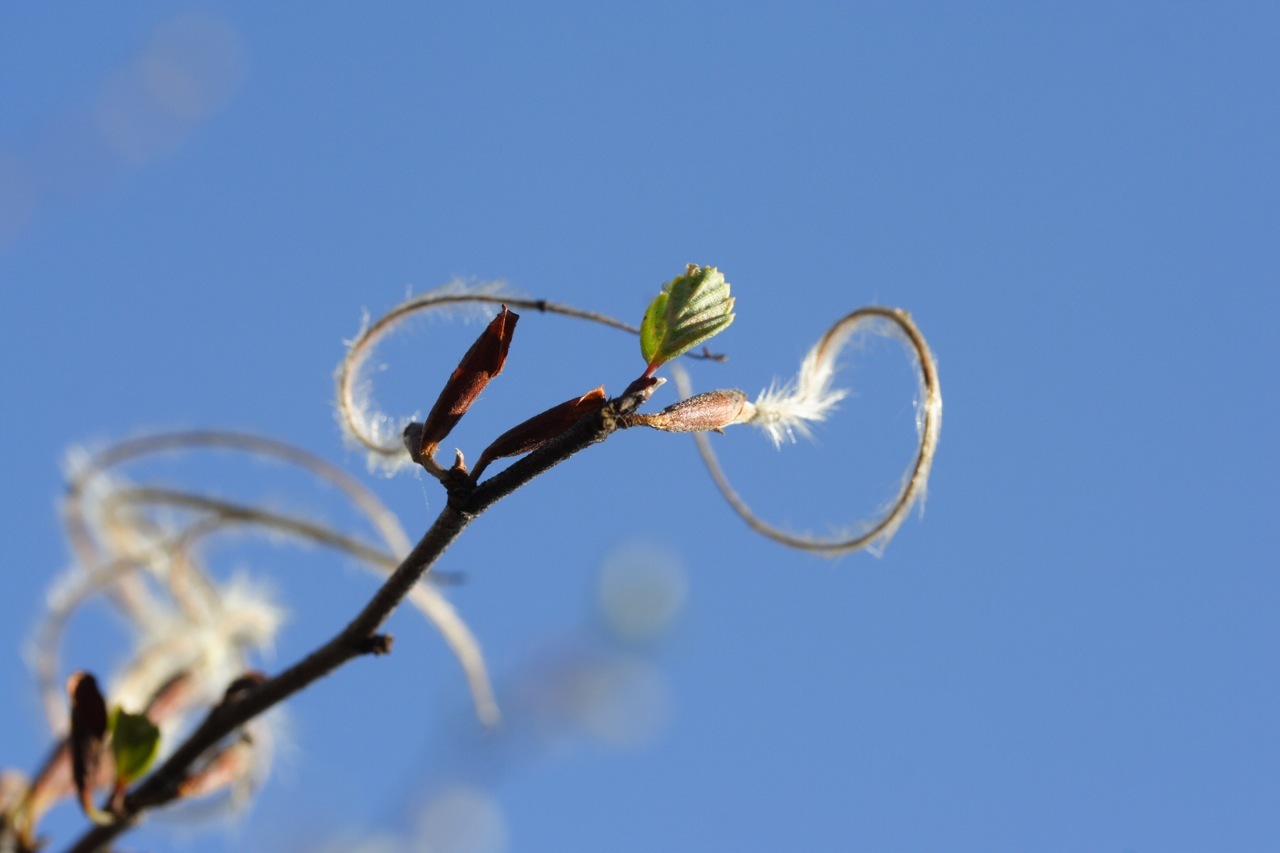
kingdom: Plantae
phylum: Tracheophyta
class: Magnoliopsida
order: Rosales
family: Rosaceae
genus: Cercocarpus
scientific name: Cercocarpus betuloides
